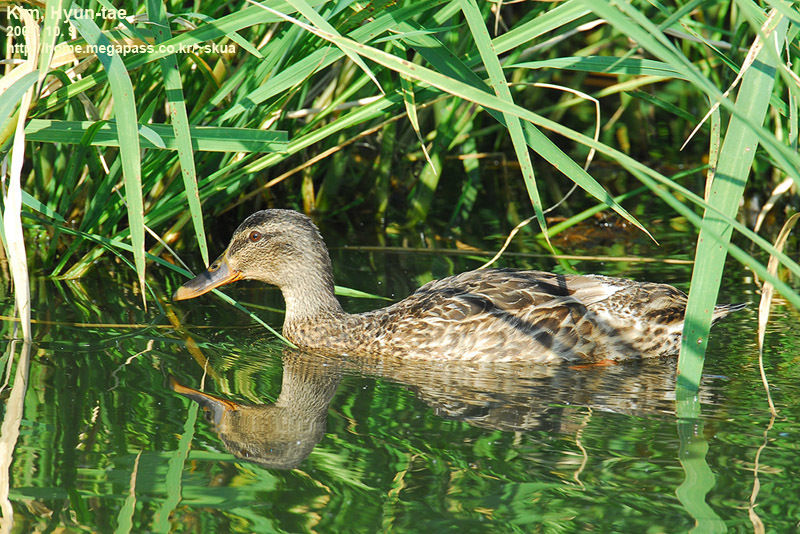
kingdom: Animalia
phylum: Chordata
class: Aves
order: Anseriformes
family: Anatidae
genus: Anas
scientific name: Anas platyrhynchos
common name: Mallard
